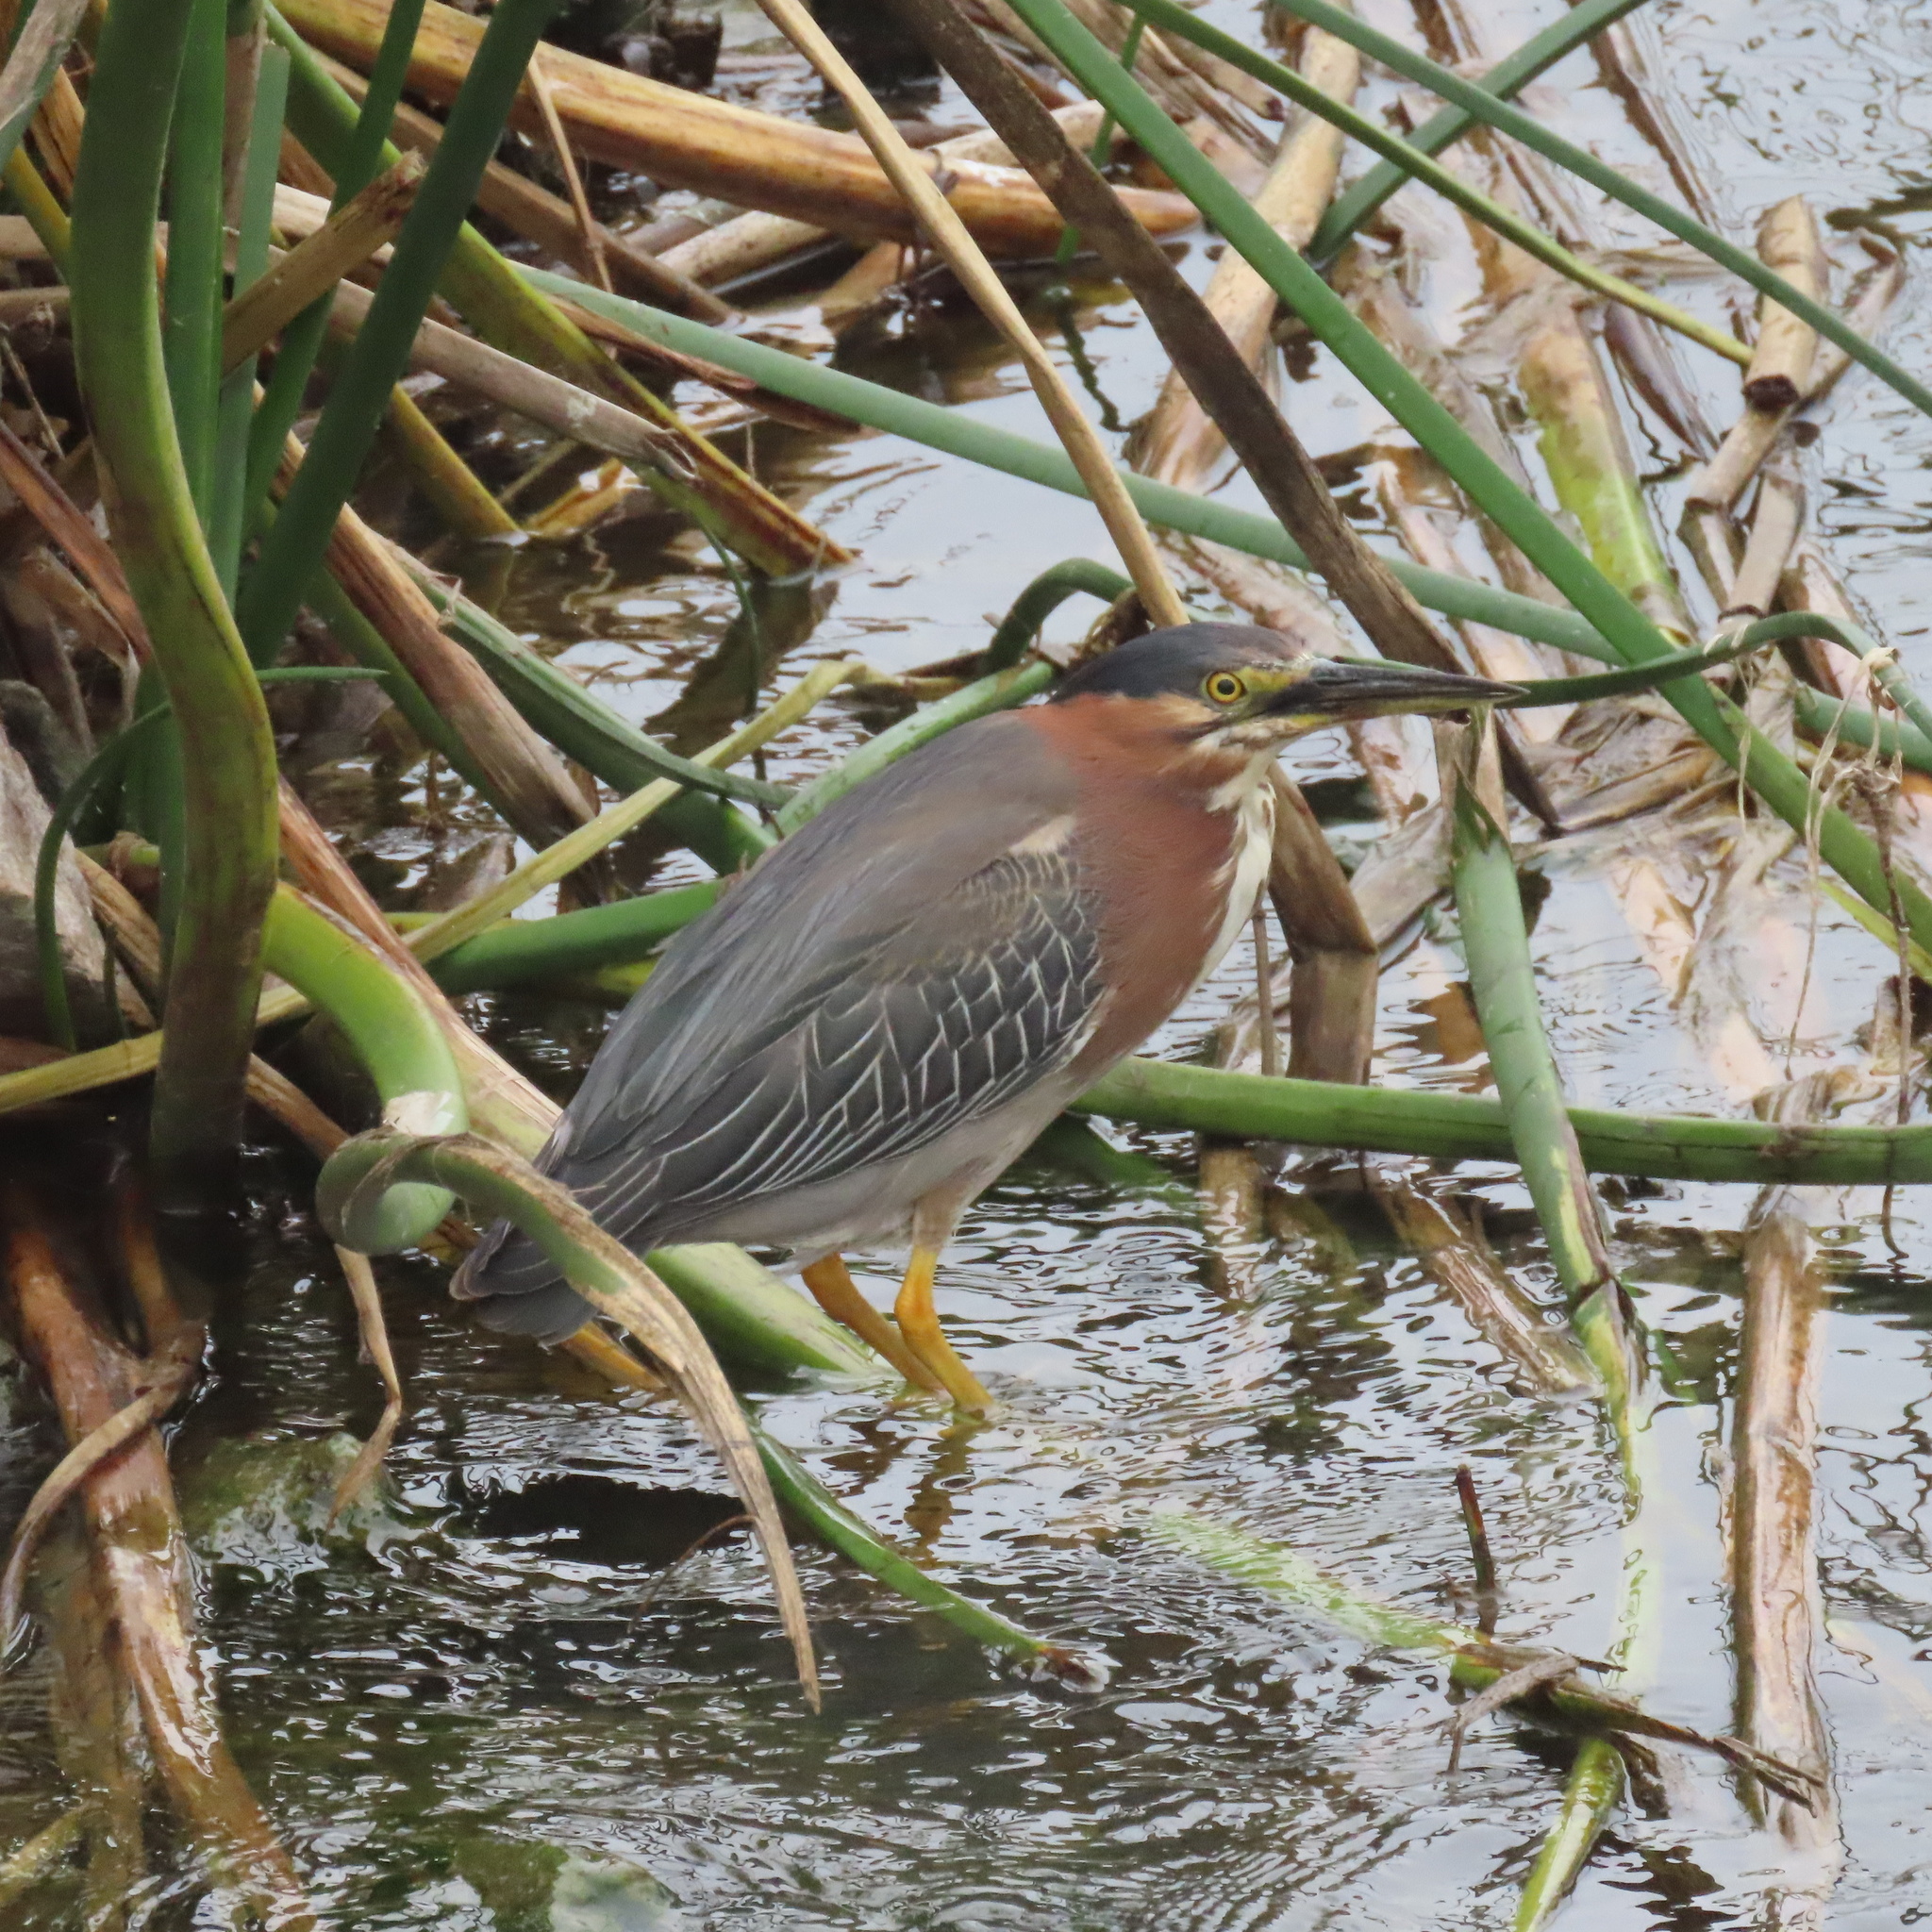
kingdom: Animalia
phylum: Chordata
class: Aves
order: Pelecaniformes
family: Ardeidae
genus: Butorides
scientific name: Butorides virescens
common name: Green heron
